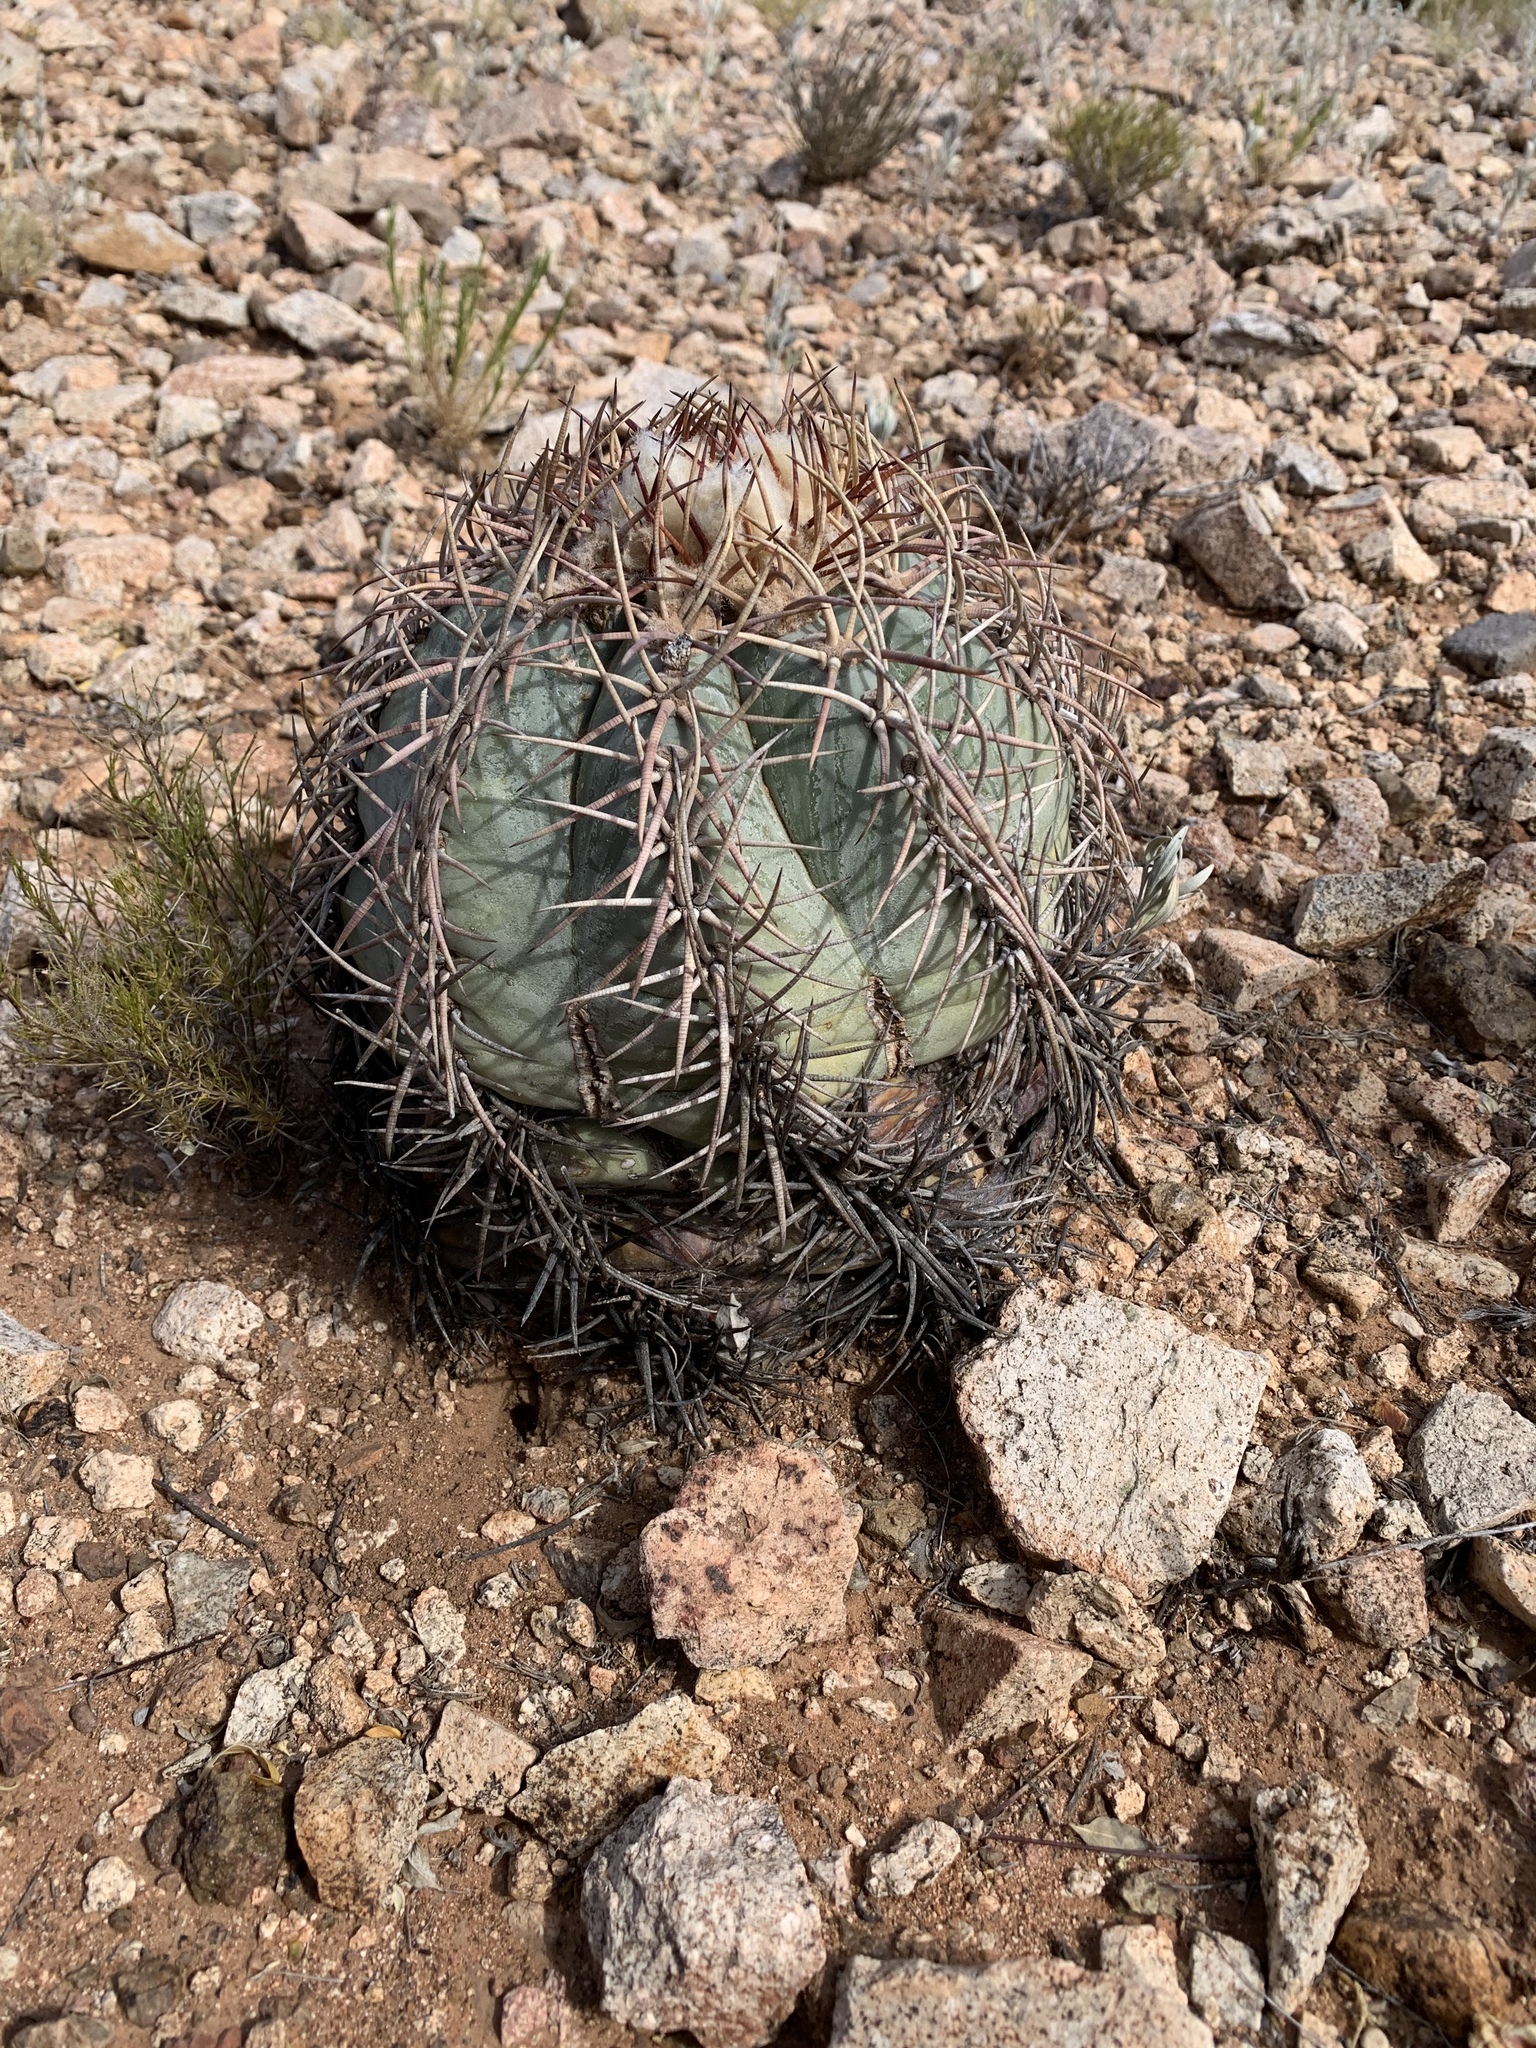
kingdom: Plantae
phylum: Tracheophyta
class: Magnoliopsida
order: Caryophyllales
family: Cactaceae
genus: Echinocactus
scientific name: Echinocactus horizonthalonius
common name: Devilshead
